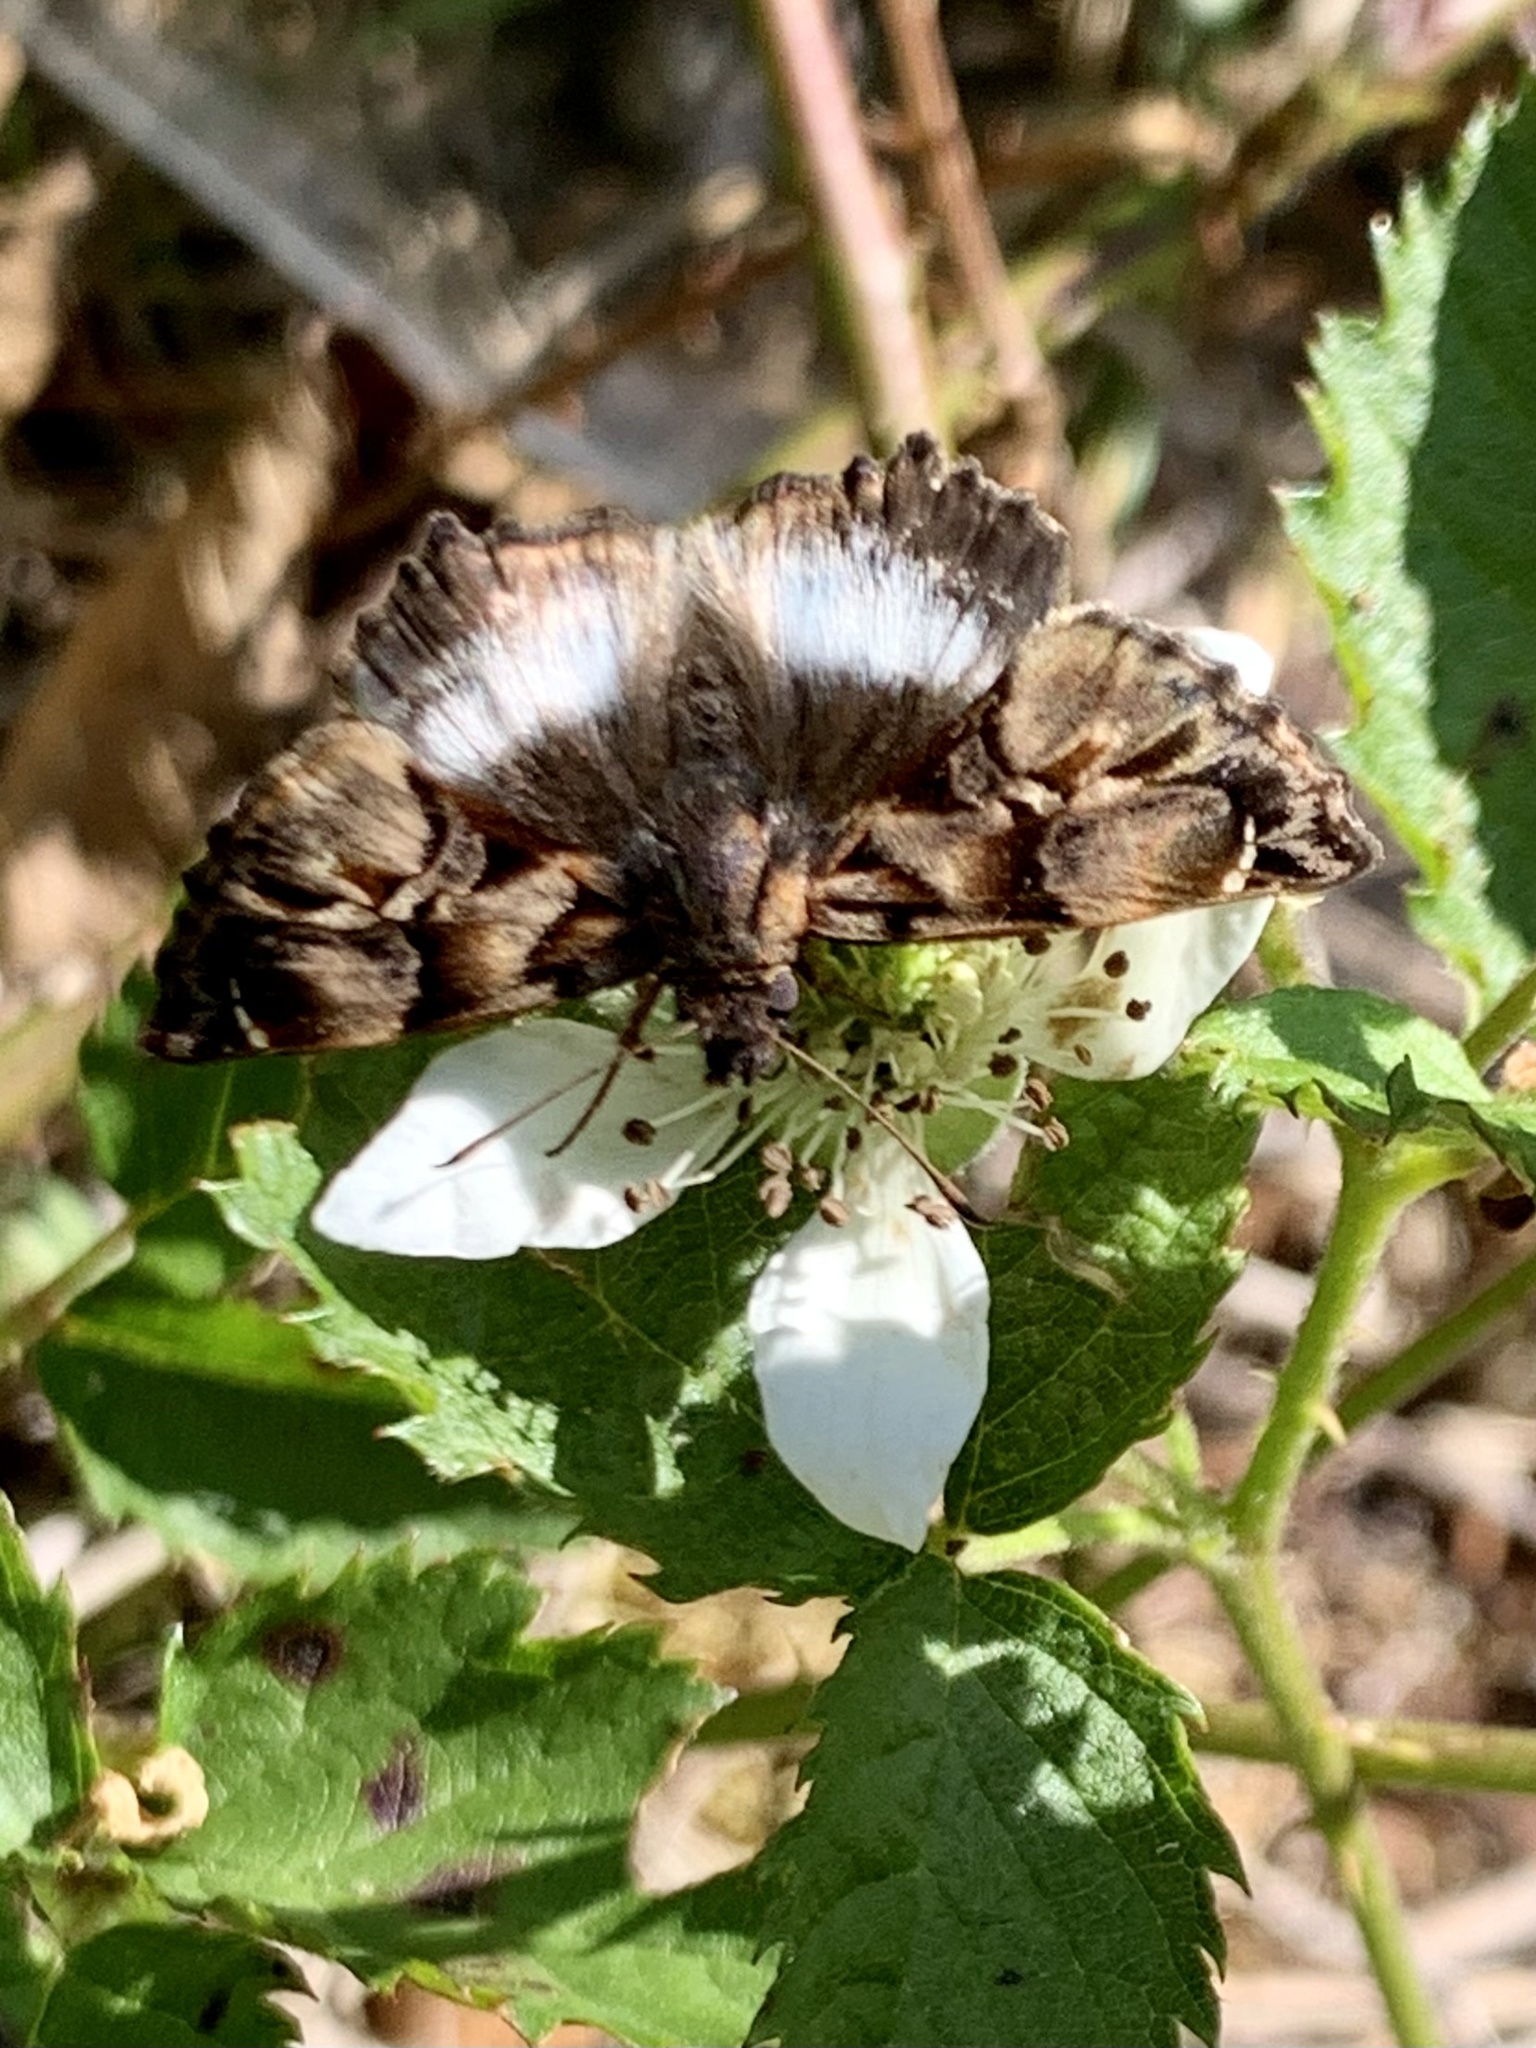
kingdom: Animalia
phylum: Arthropoda
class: Insecta
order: Lepidoptera
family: Hesperiidae
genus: Noctuana
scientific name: Noctuana lactifera
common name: Cryptic skipper
